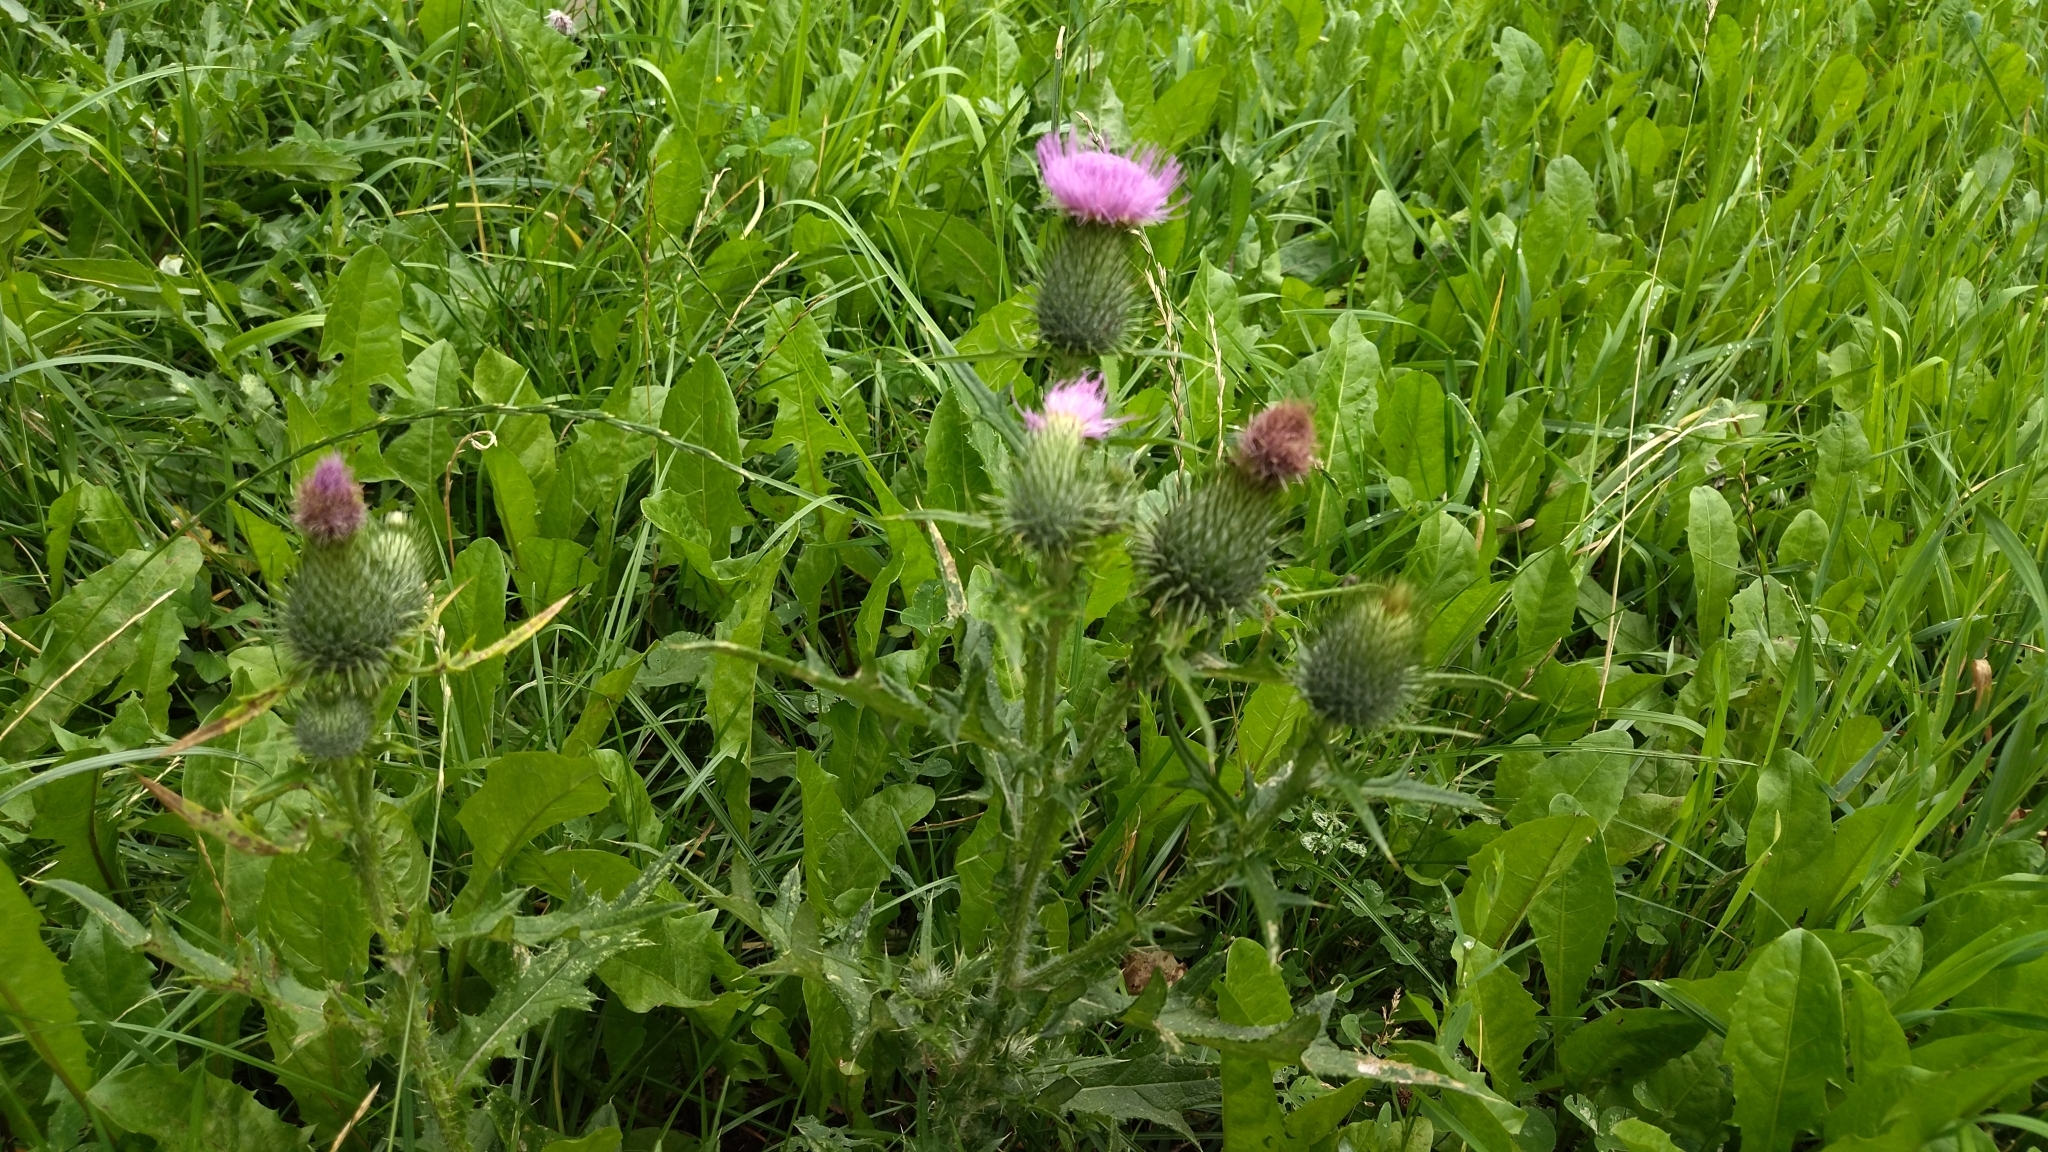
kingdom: Plantae
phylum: Tracheophyta
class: Magnoliopsida
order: Asterales
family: Asteraceae
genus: Cirsium
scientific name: Cirsium vulgare
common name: Bull thistle
